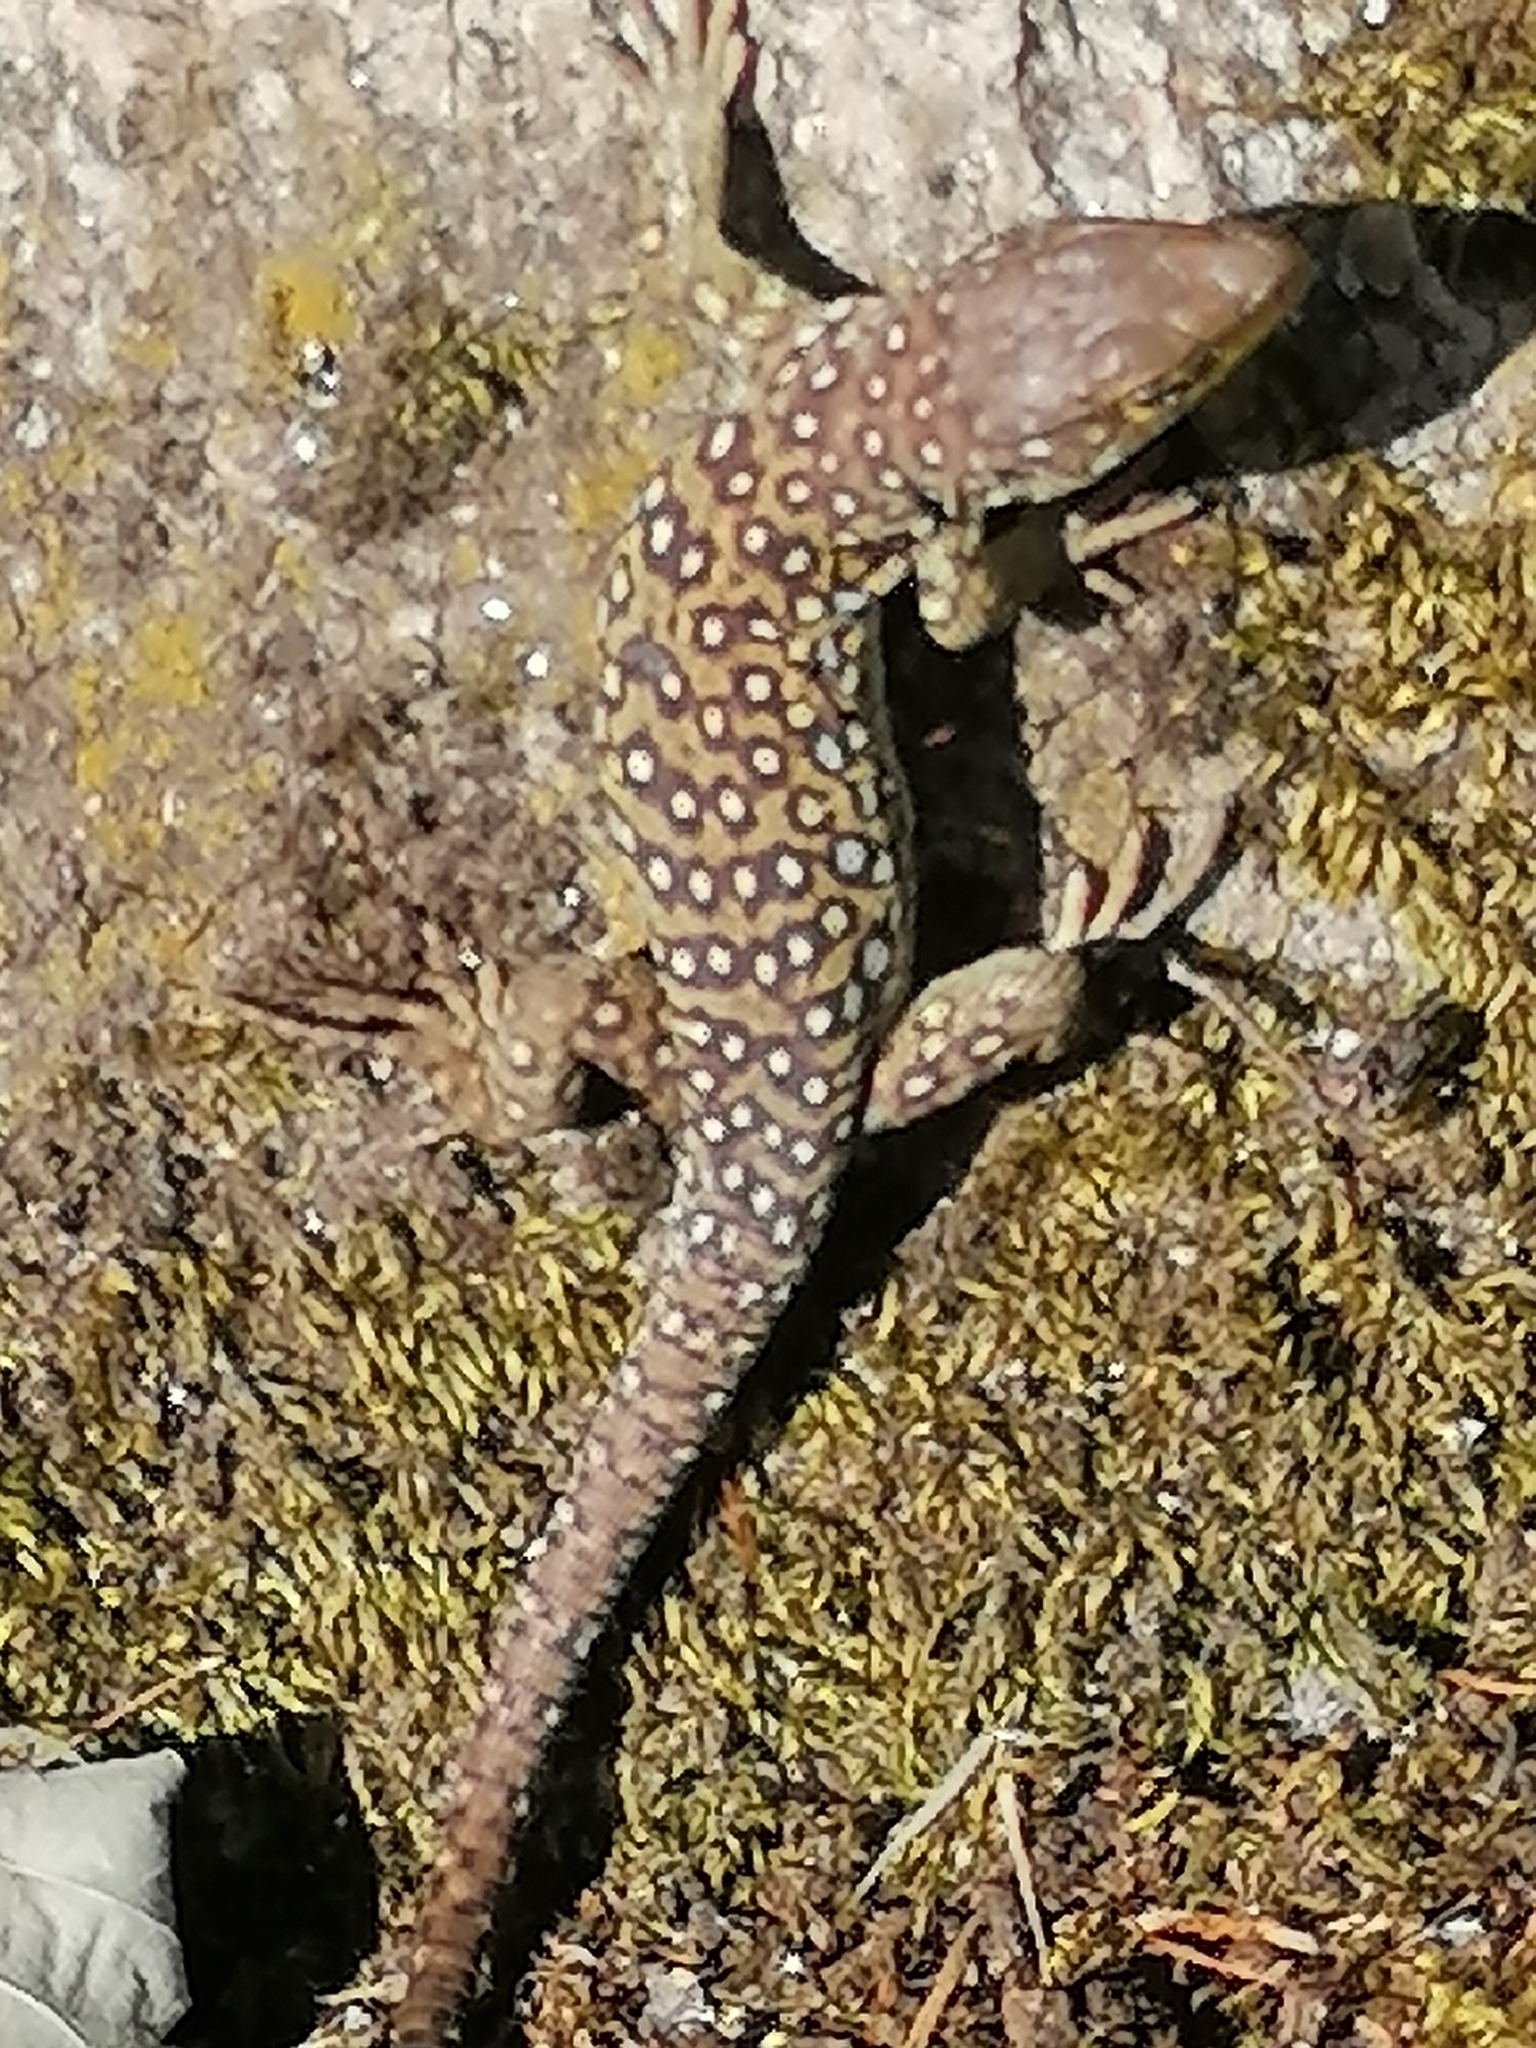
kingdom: Animalia
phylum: Chordata
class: Squamata
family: Lacertidae
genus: Timon
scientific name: Timon lepidus
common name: Ocellated lizard
